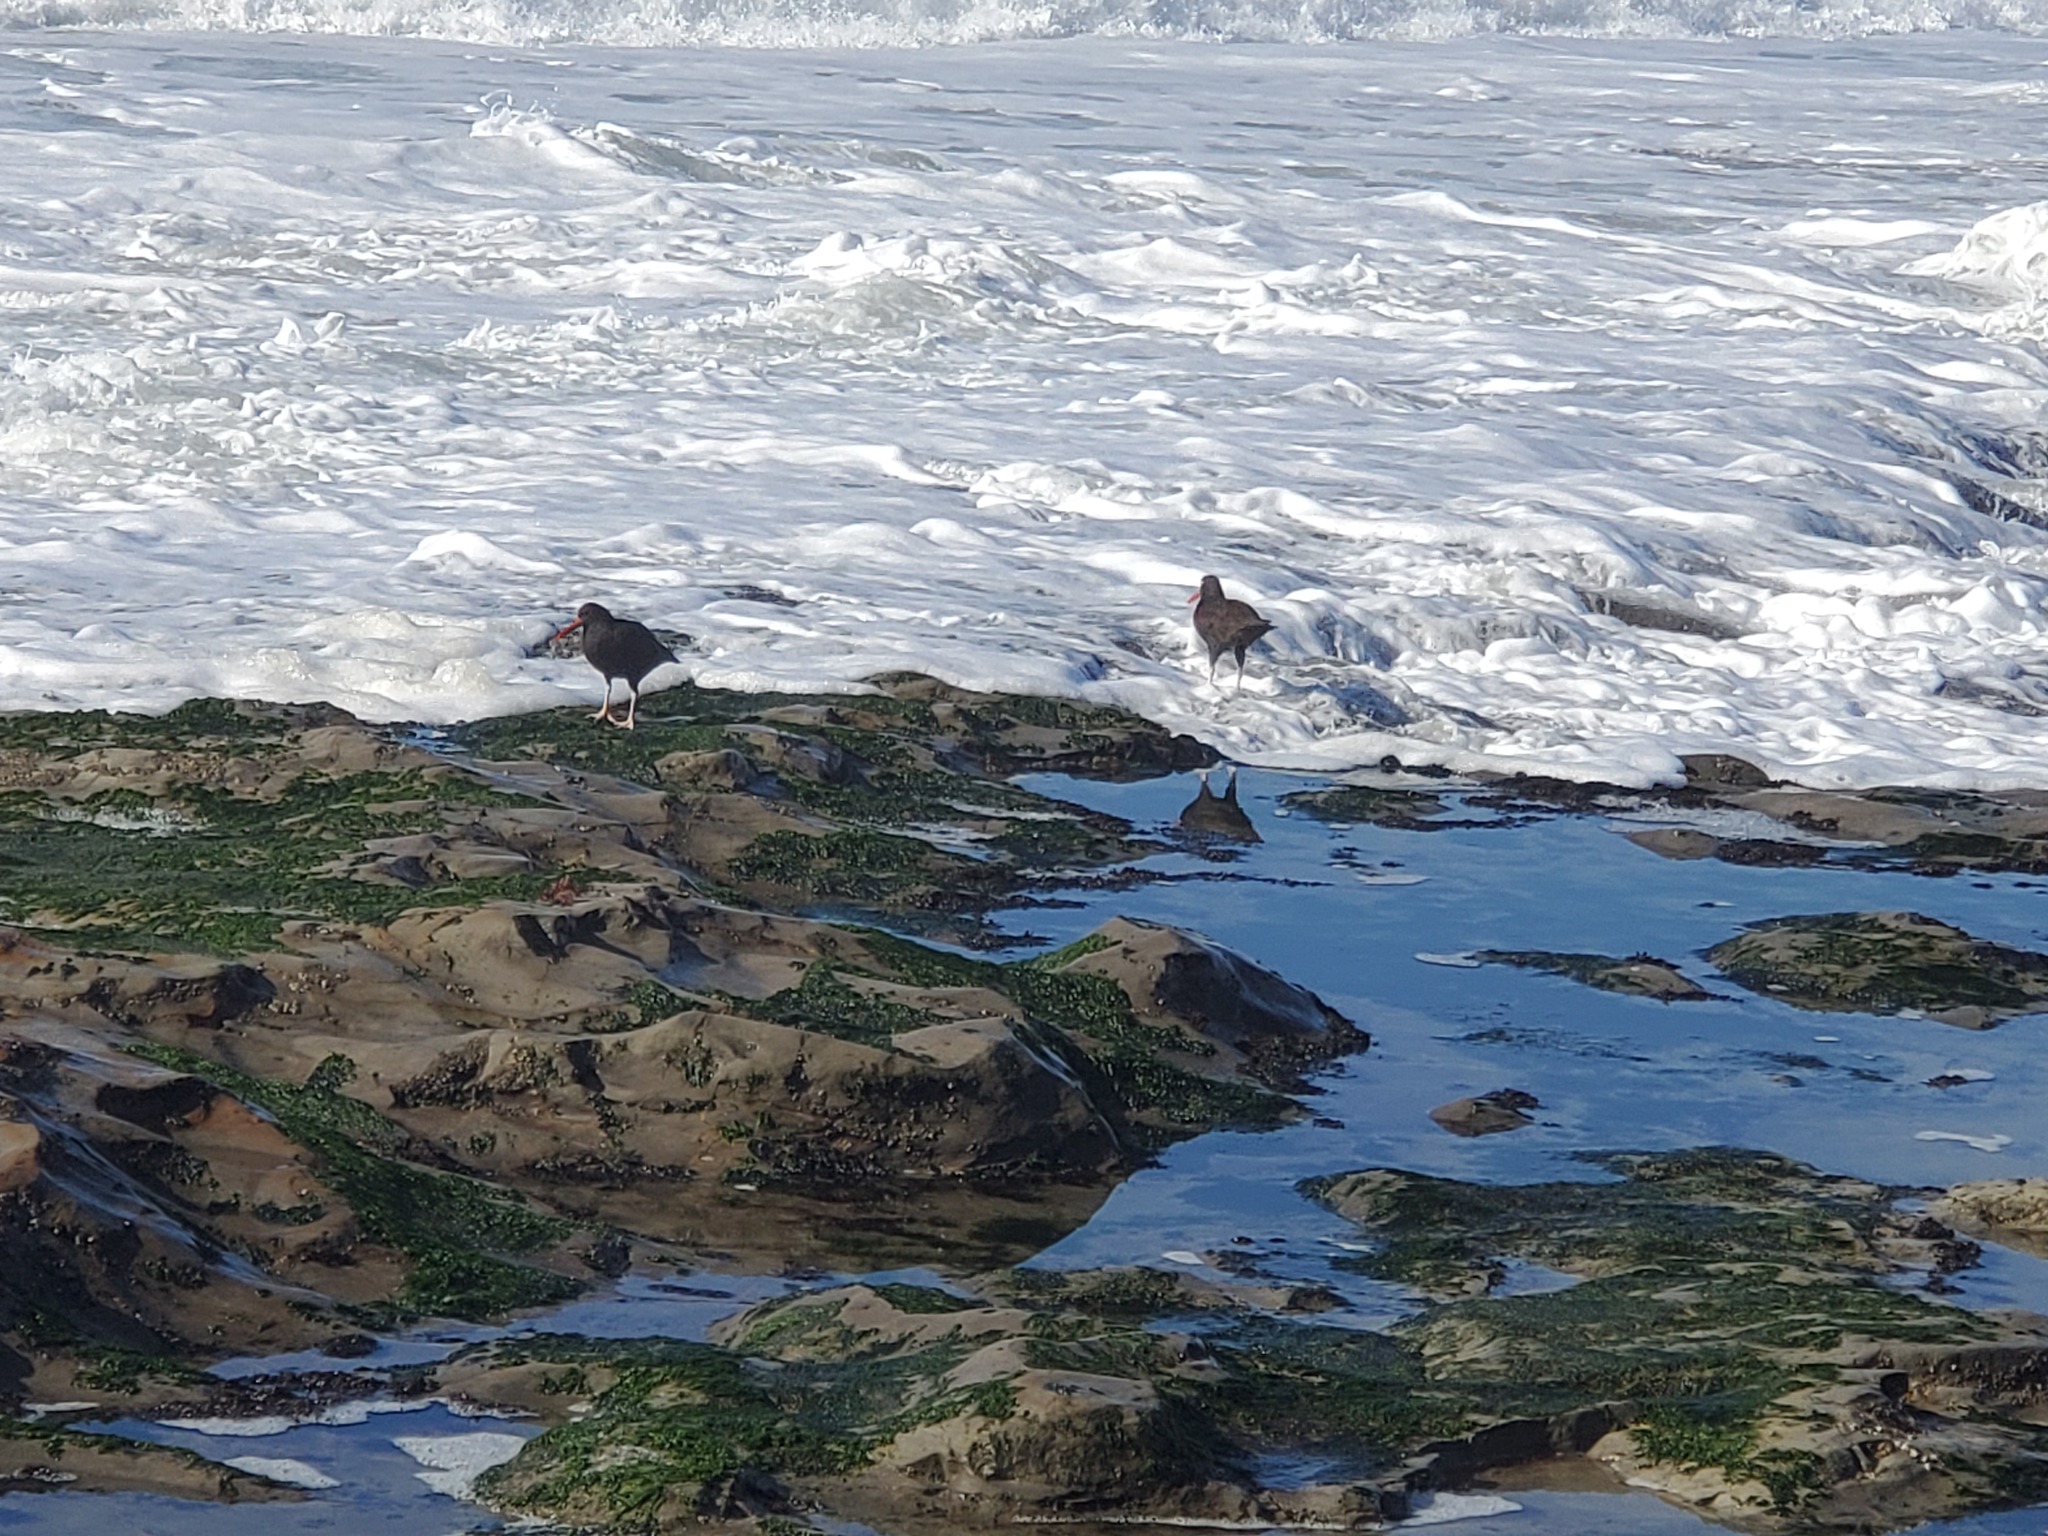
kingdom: Animalia
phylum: Chordata
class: Aves
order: Charadriiformes
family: Haematopodidae
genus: Haematopus
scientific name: Haematopus bachmani
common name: Black oystercatcher
